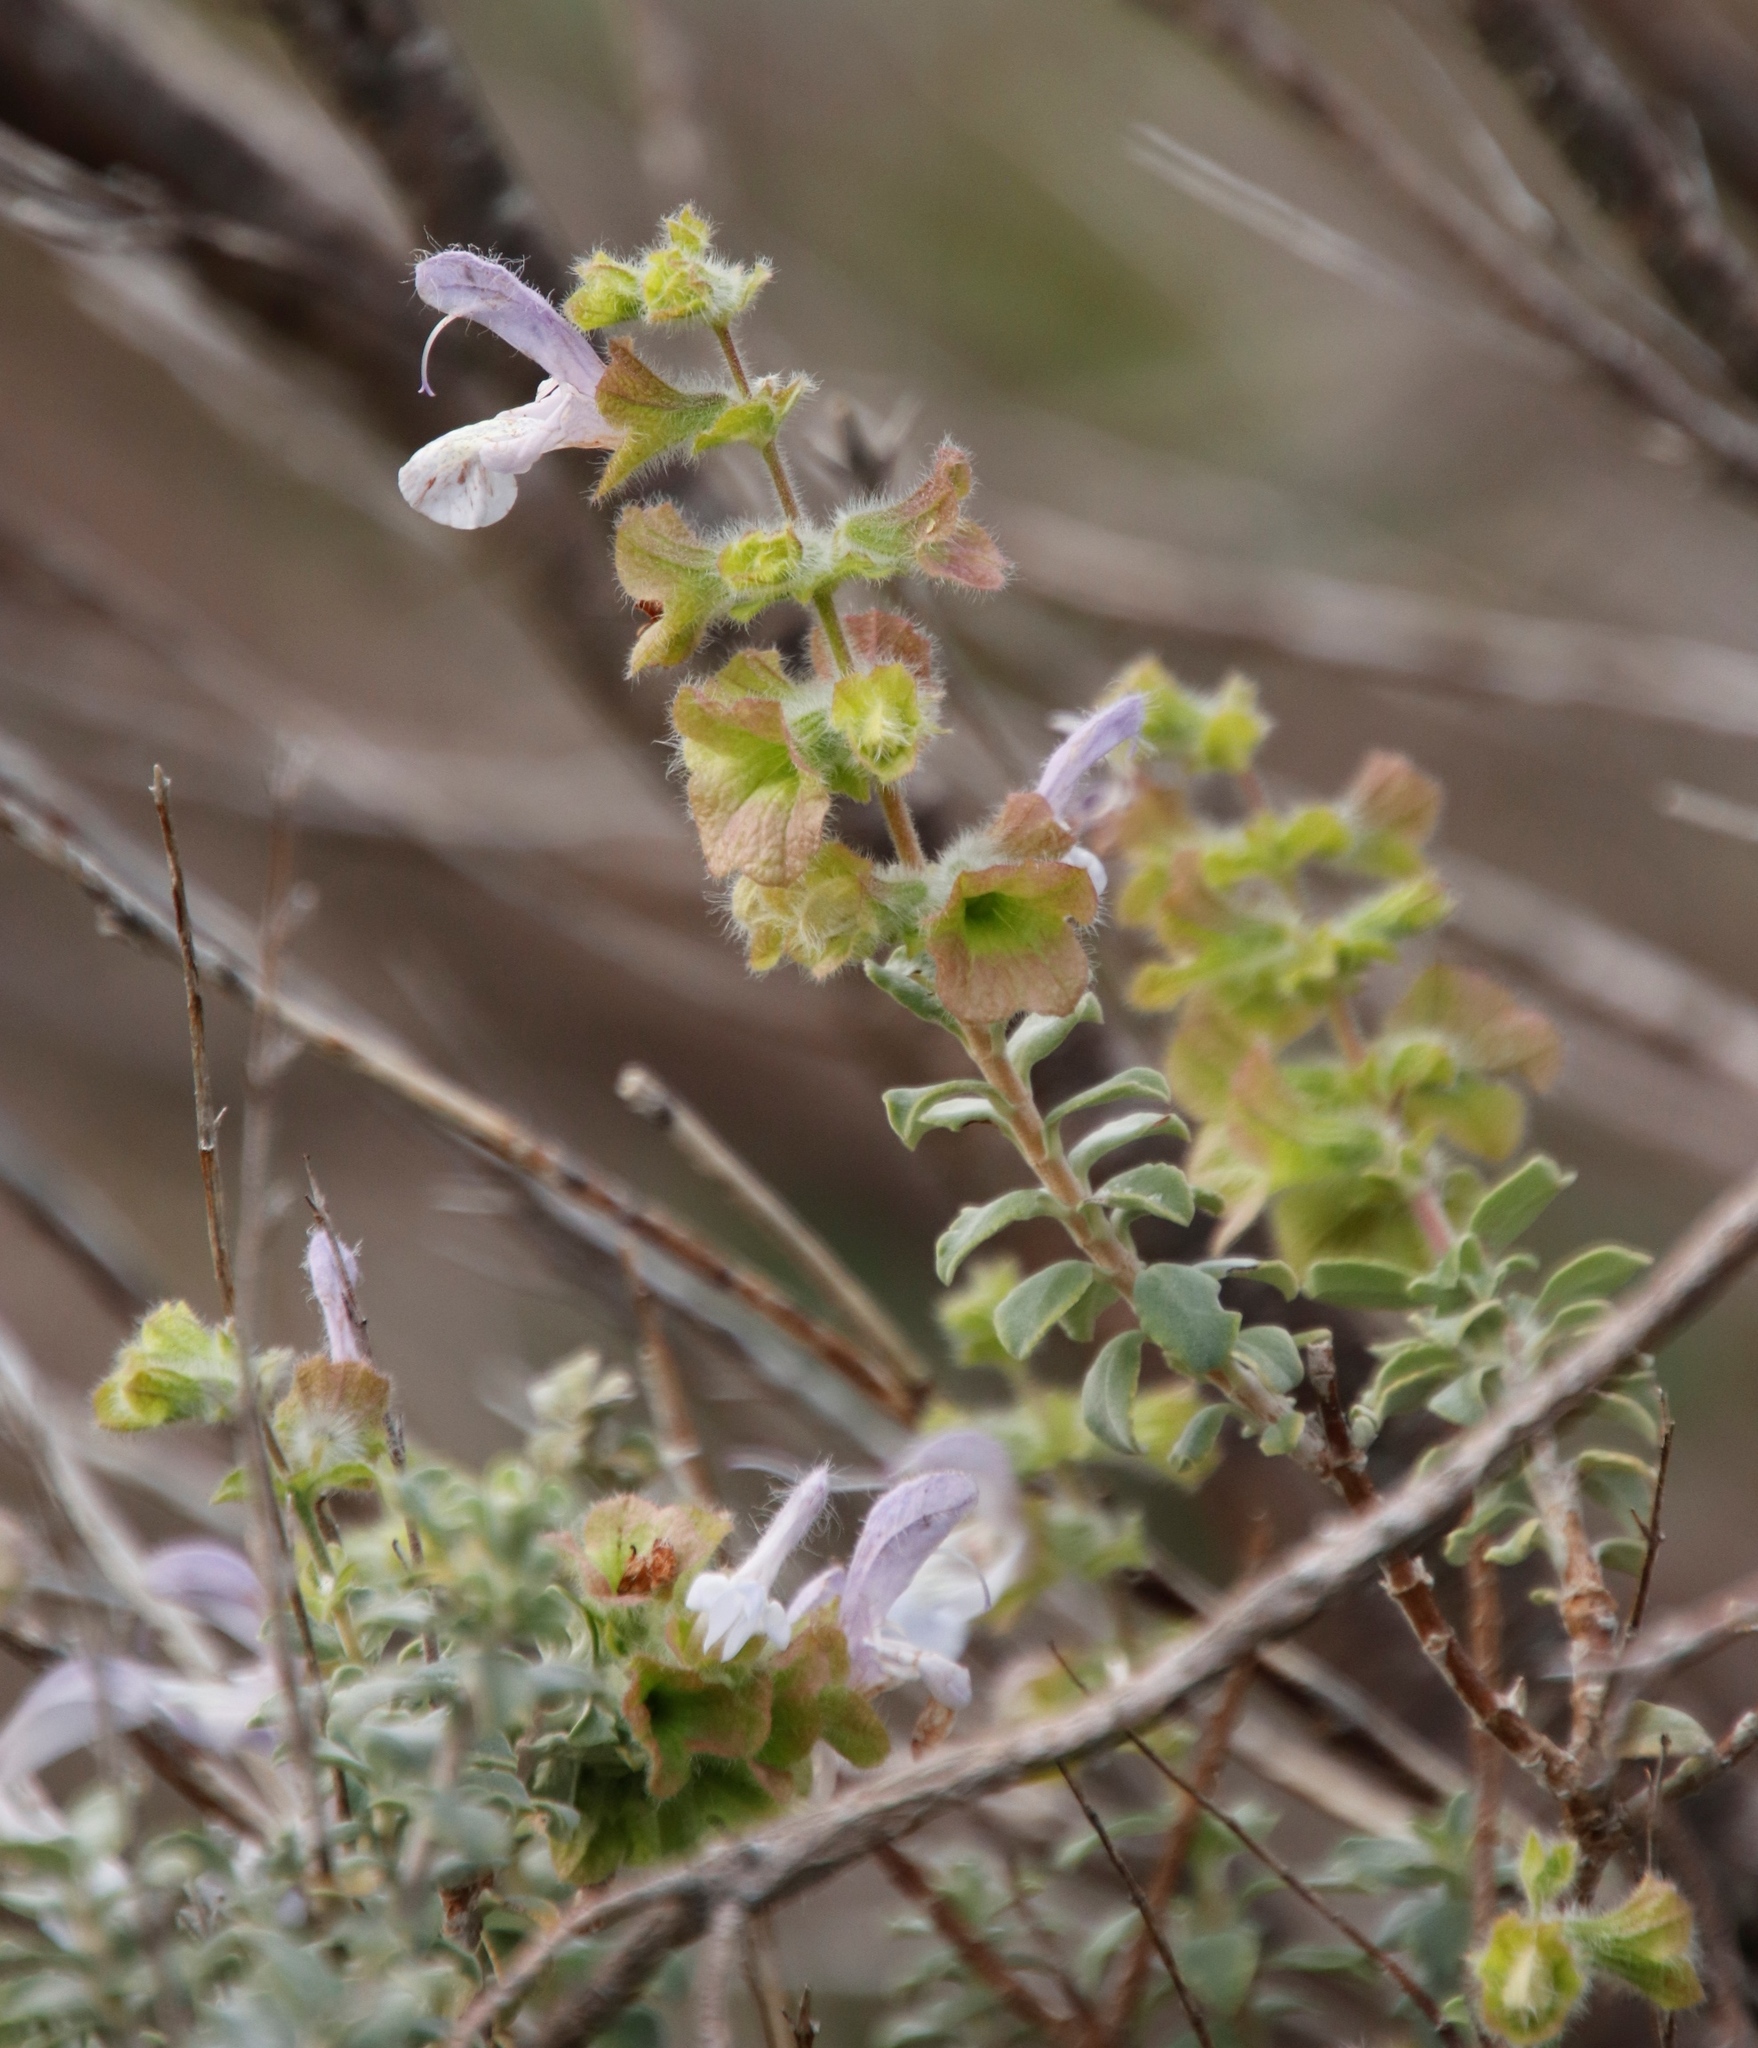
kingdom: Plantae
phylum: Tracheophyta
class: Magnoliopsida
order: Lamiales
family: Lamiaceae
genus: Salvia
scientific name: Salvia africana
